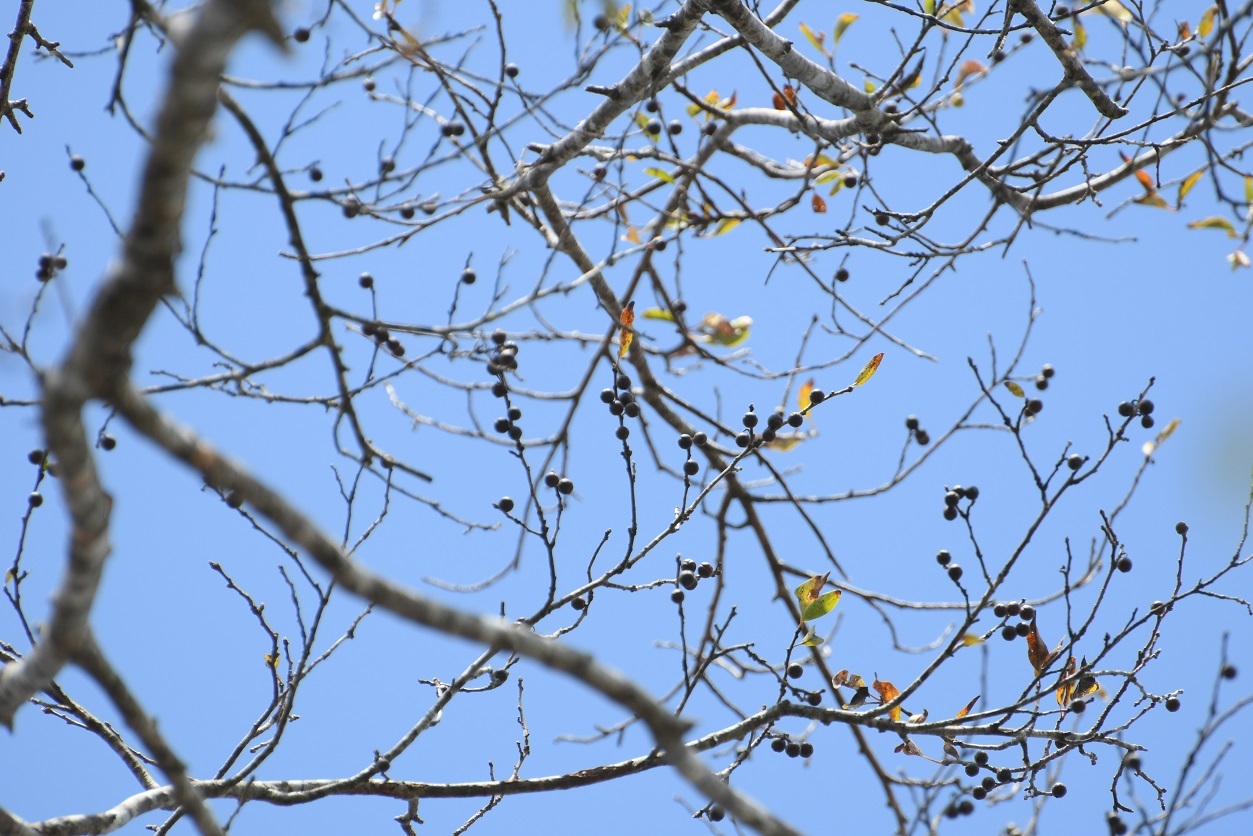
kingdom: Plantae
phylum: Tracheophyta
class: Magnoliopsida
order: Rosales
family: Rhamnaceae
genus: Colubrina
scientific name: Colubrina arborescens
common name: Wild coffee
